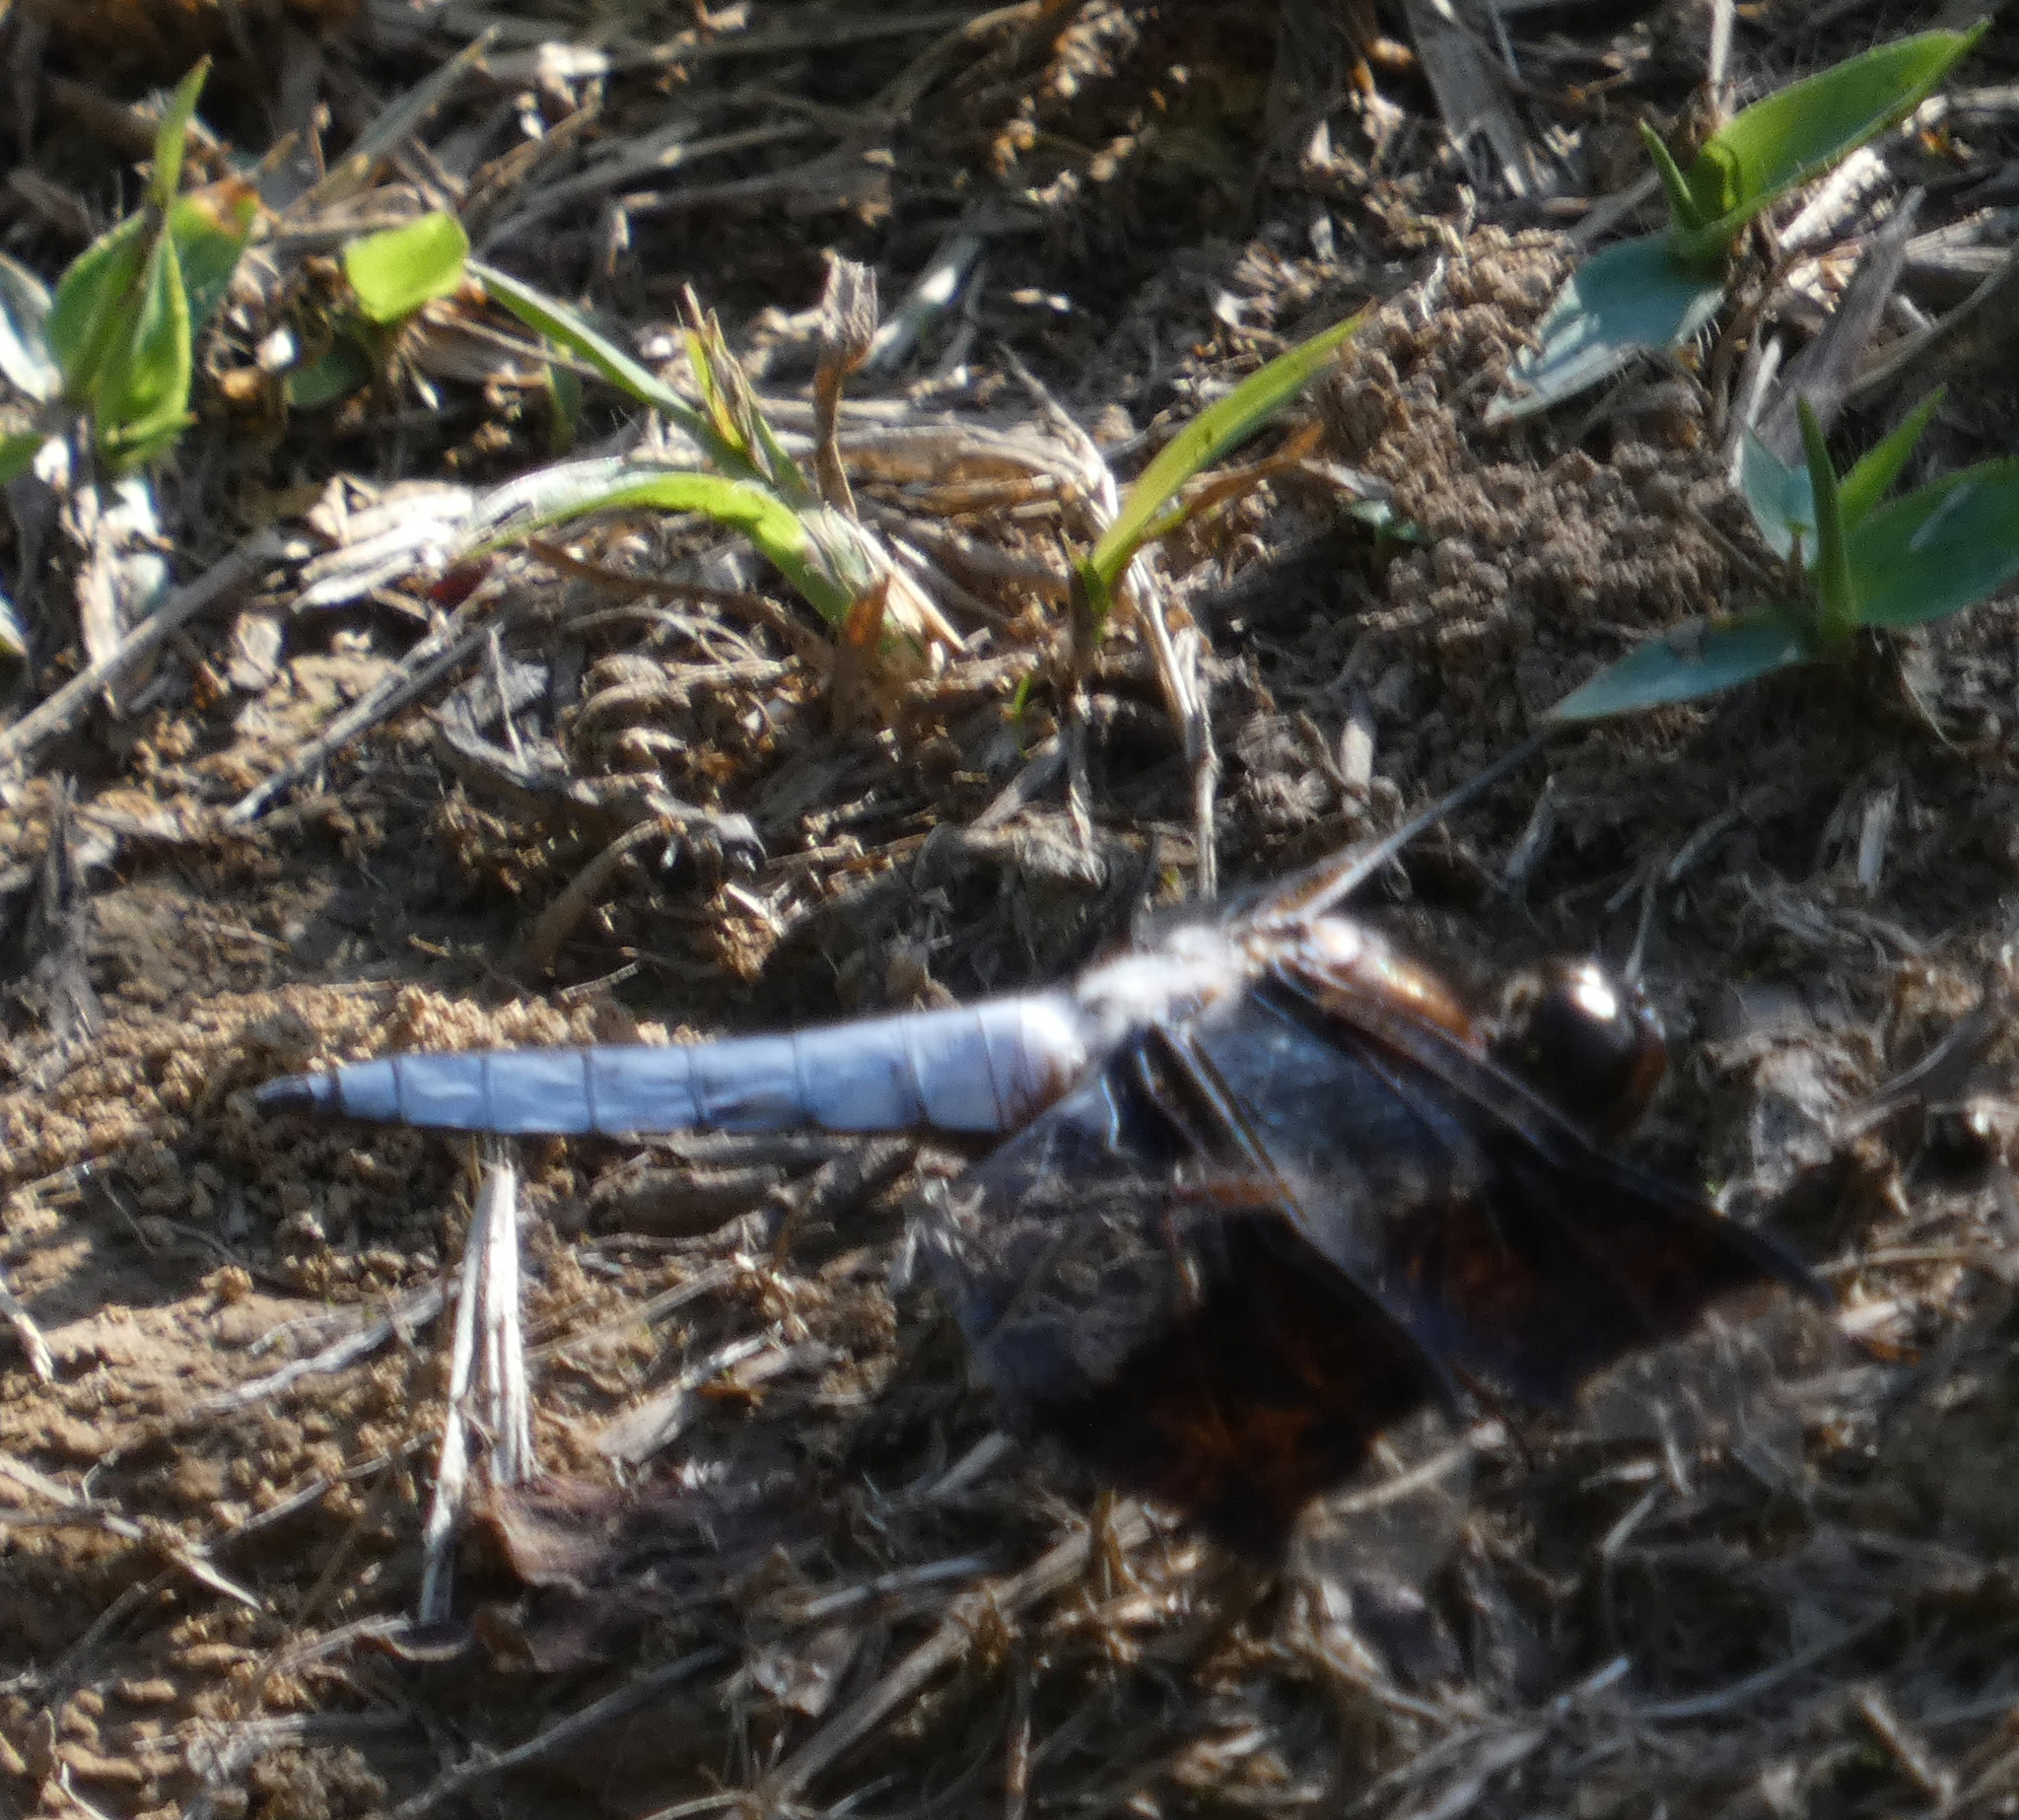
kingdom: Animalia
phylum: Arthropoda
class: Insecta
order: Odonata
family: Libellulidae
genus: Plathemis
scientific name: Plathemis lydia
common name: Common whitetail
